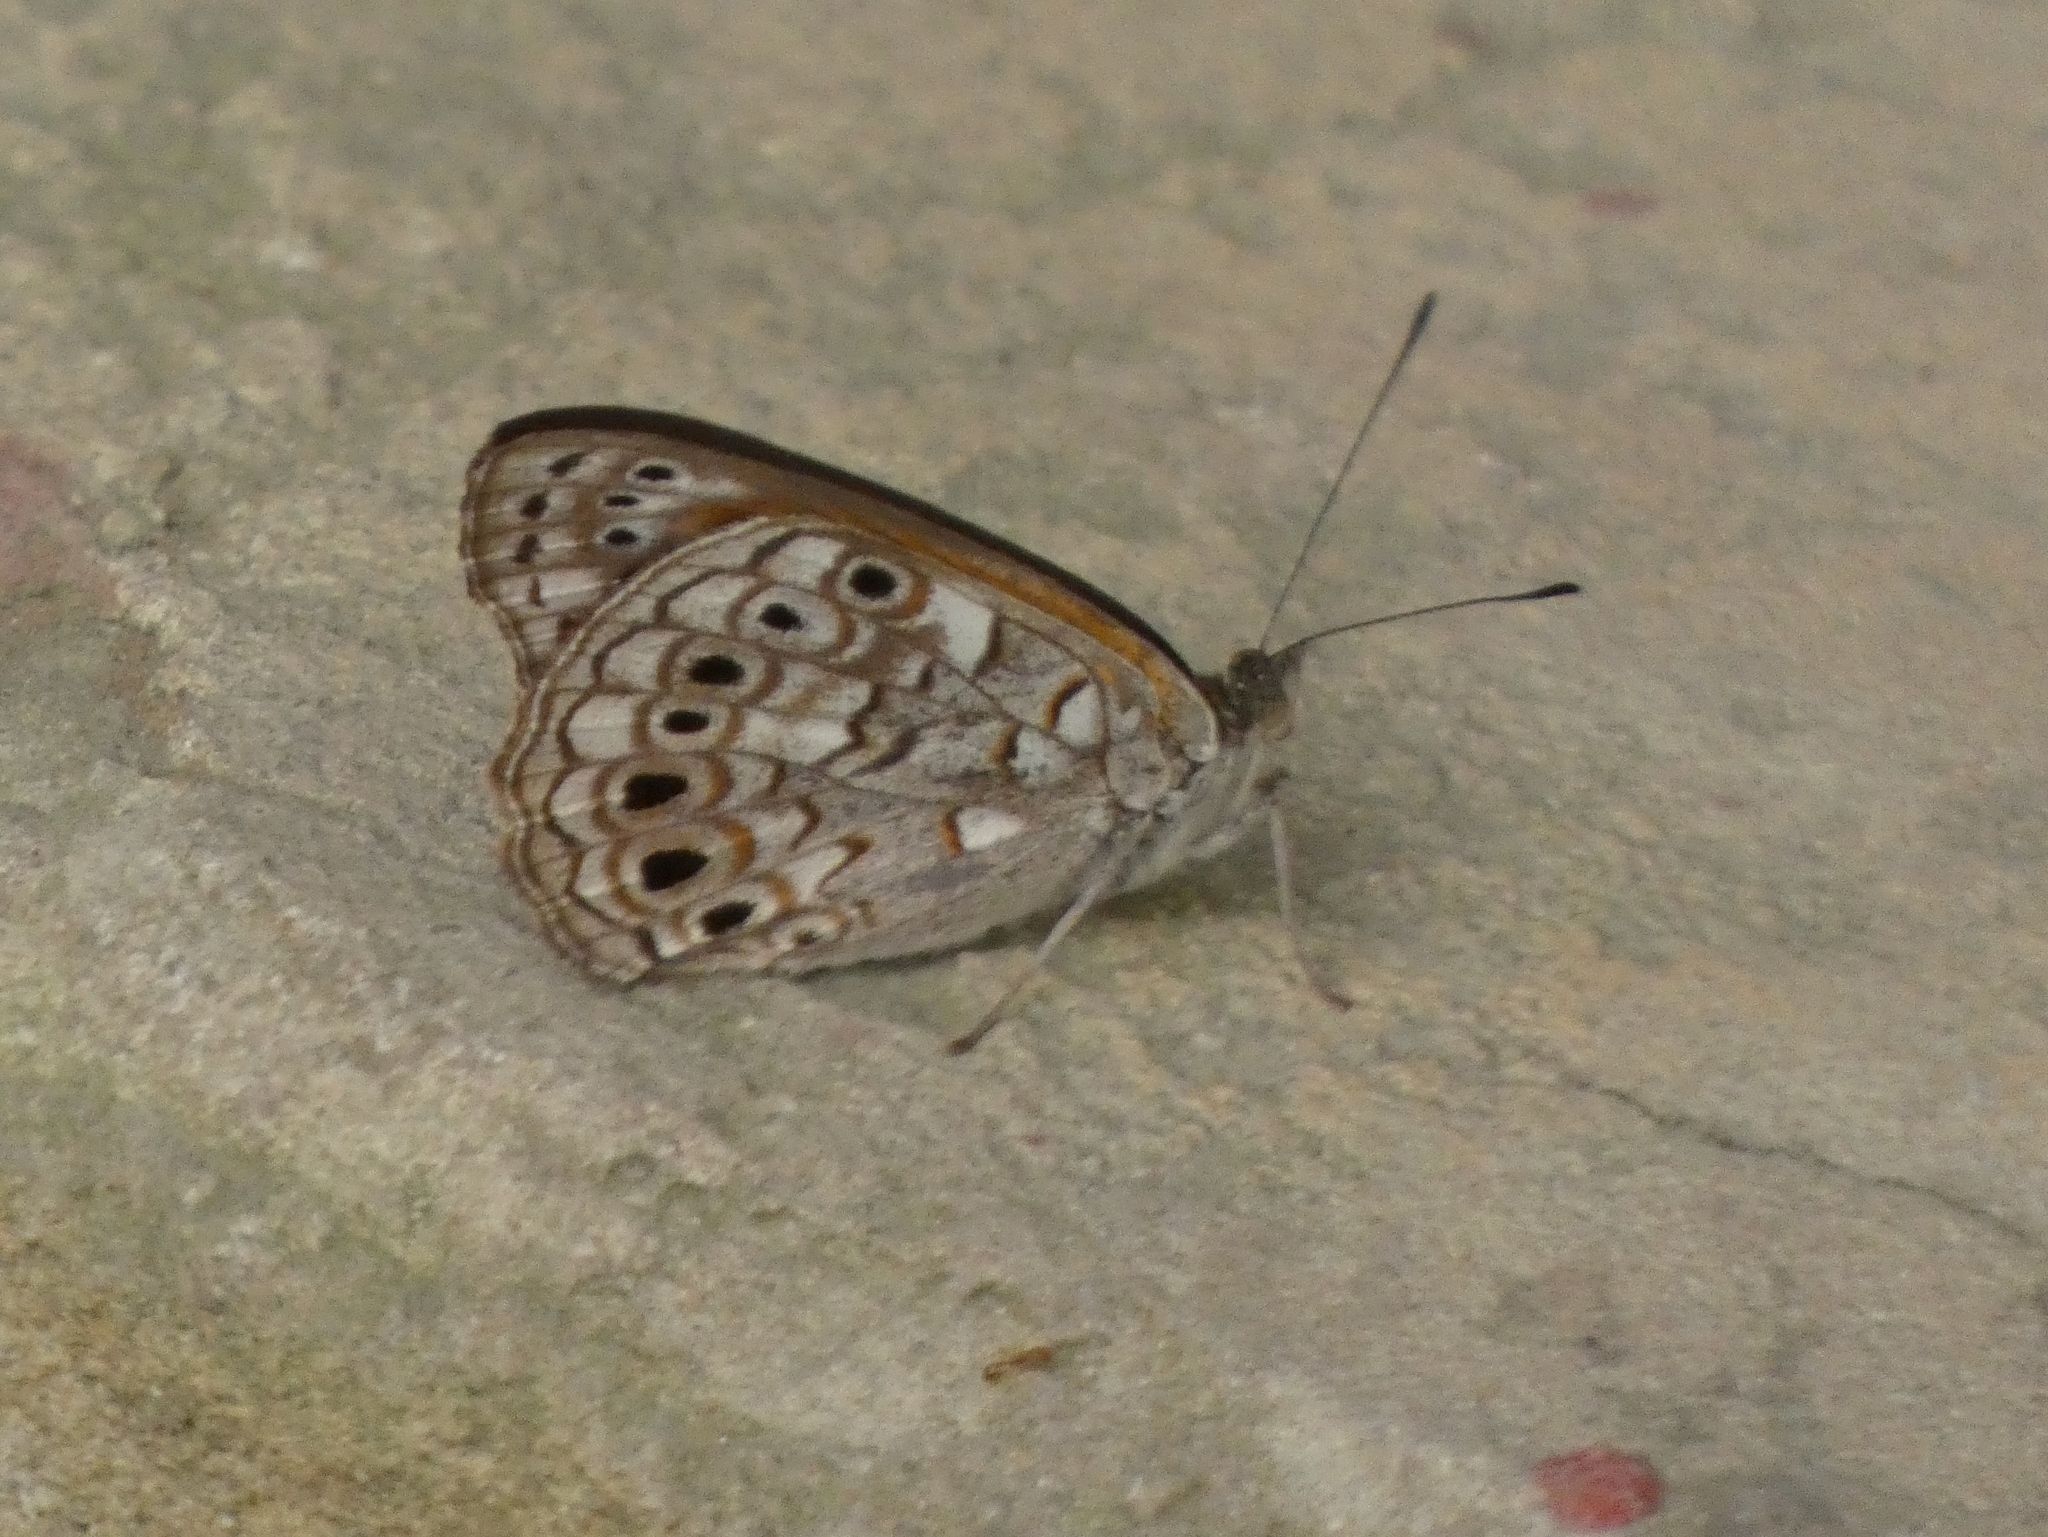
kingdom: Animalia
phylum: Arthropoda
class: Insecta
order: Lepidoptera
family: Nymphalidae
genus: Asterope
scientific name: Asterope boisduvali
